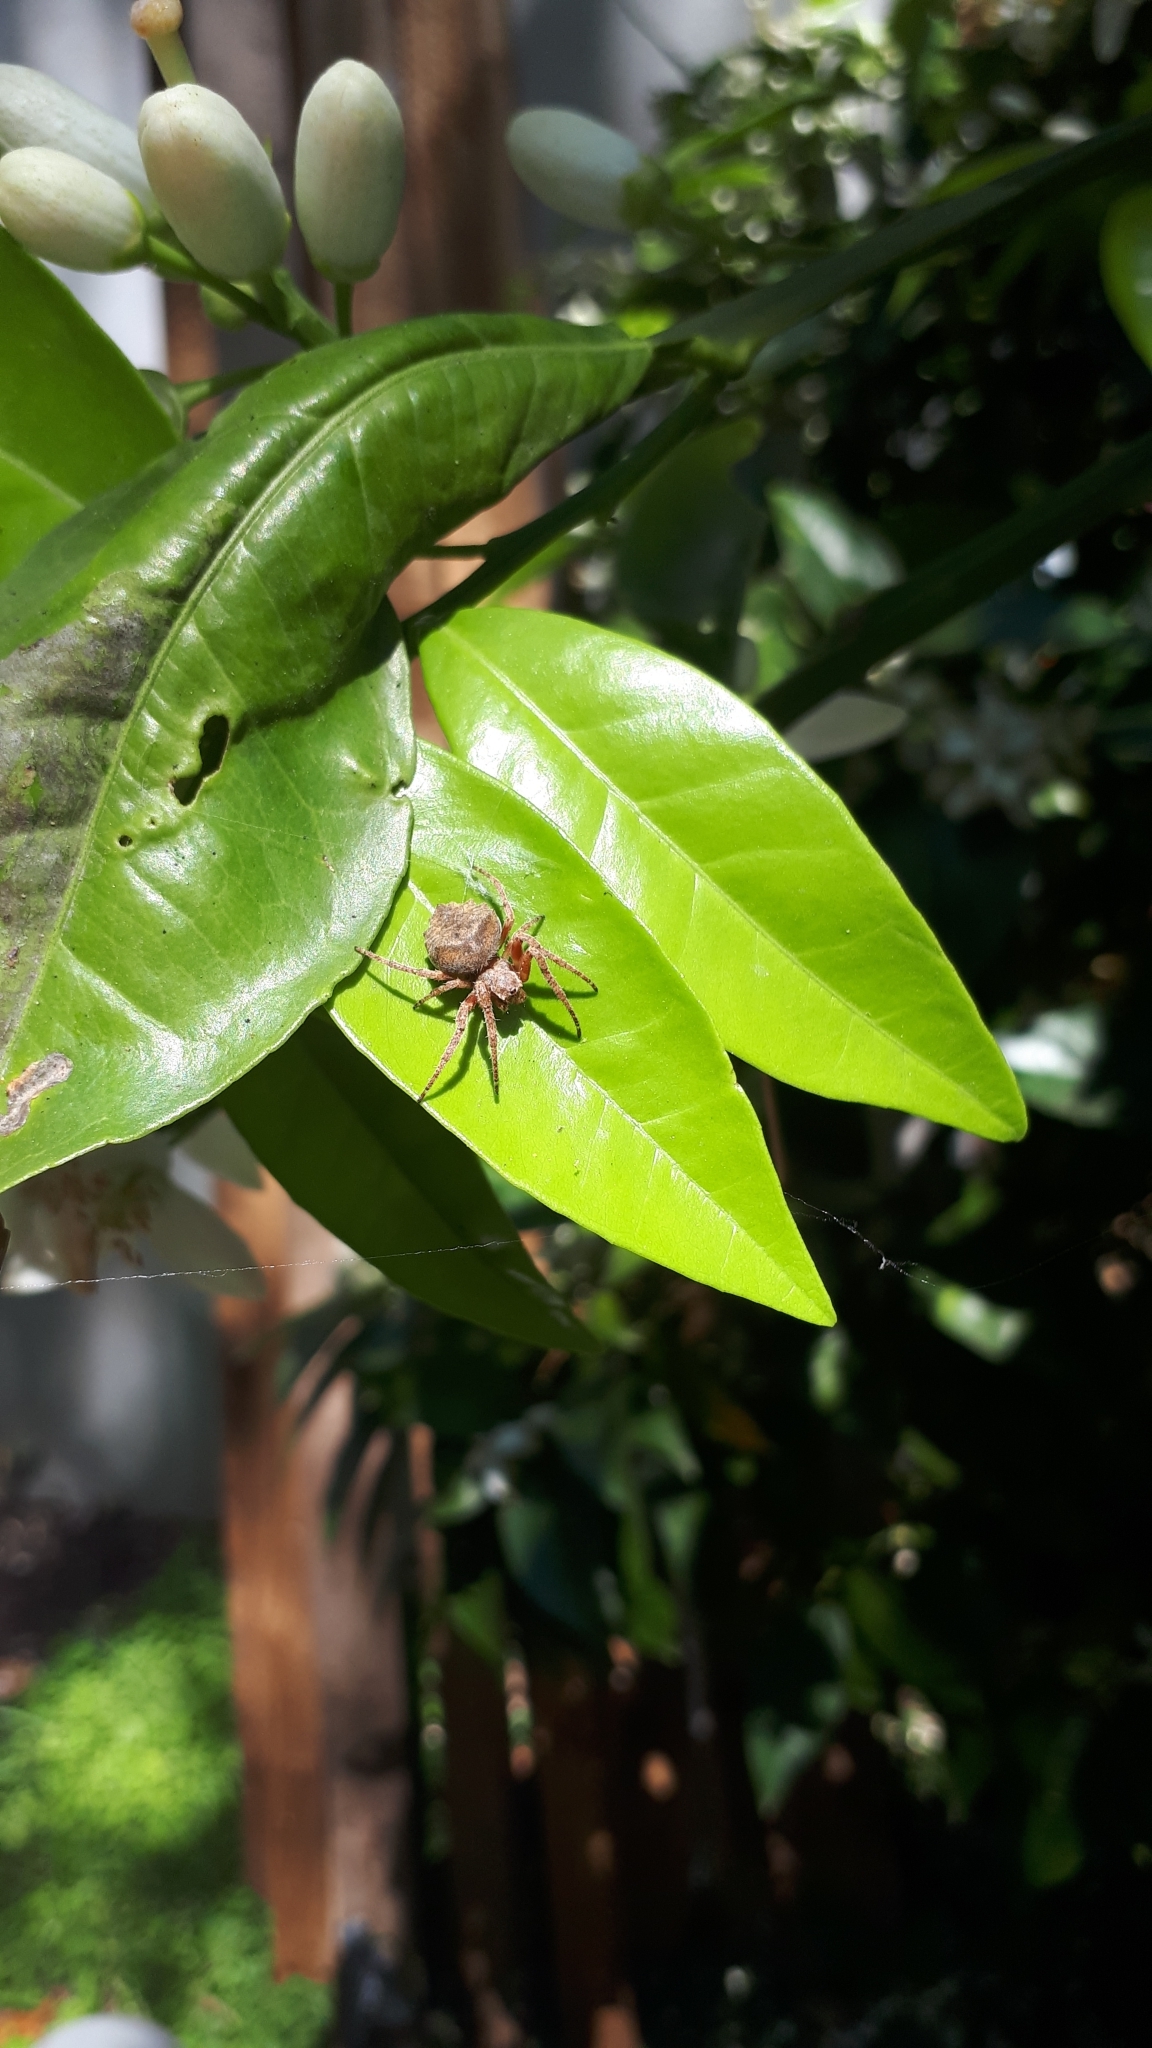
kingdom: Animalia
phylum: Arthropoda
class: Arachnida
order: Araneae
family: Araneidae
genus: Parawixia
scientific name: Parawixia audax
